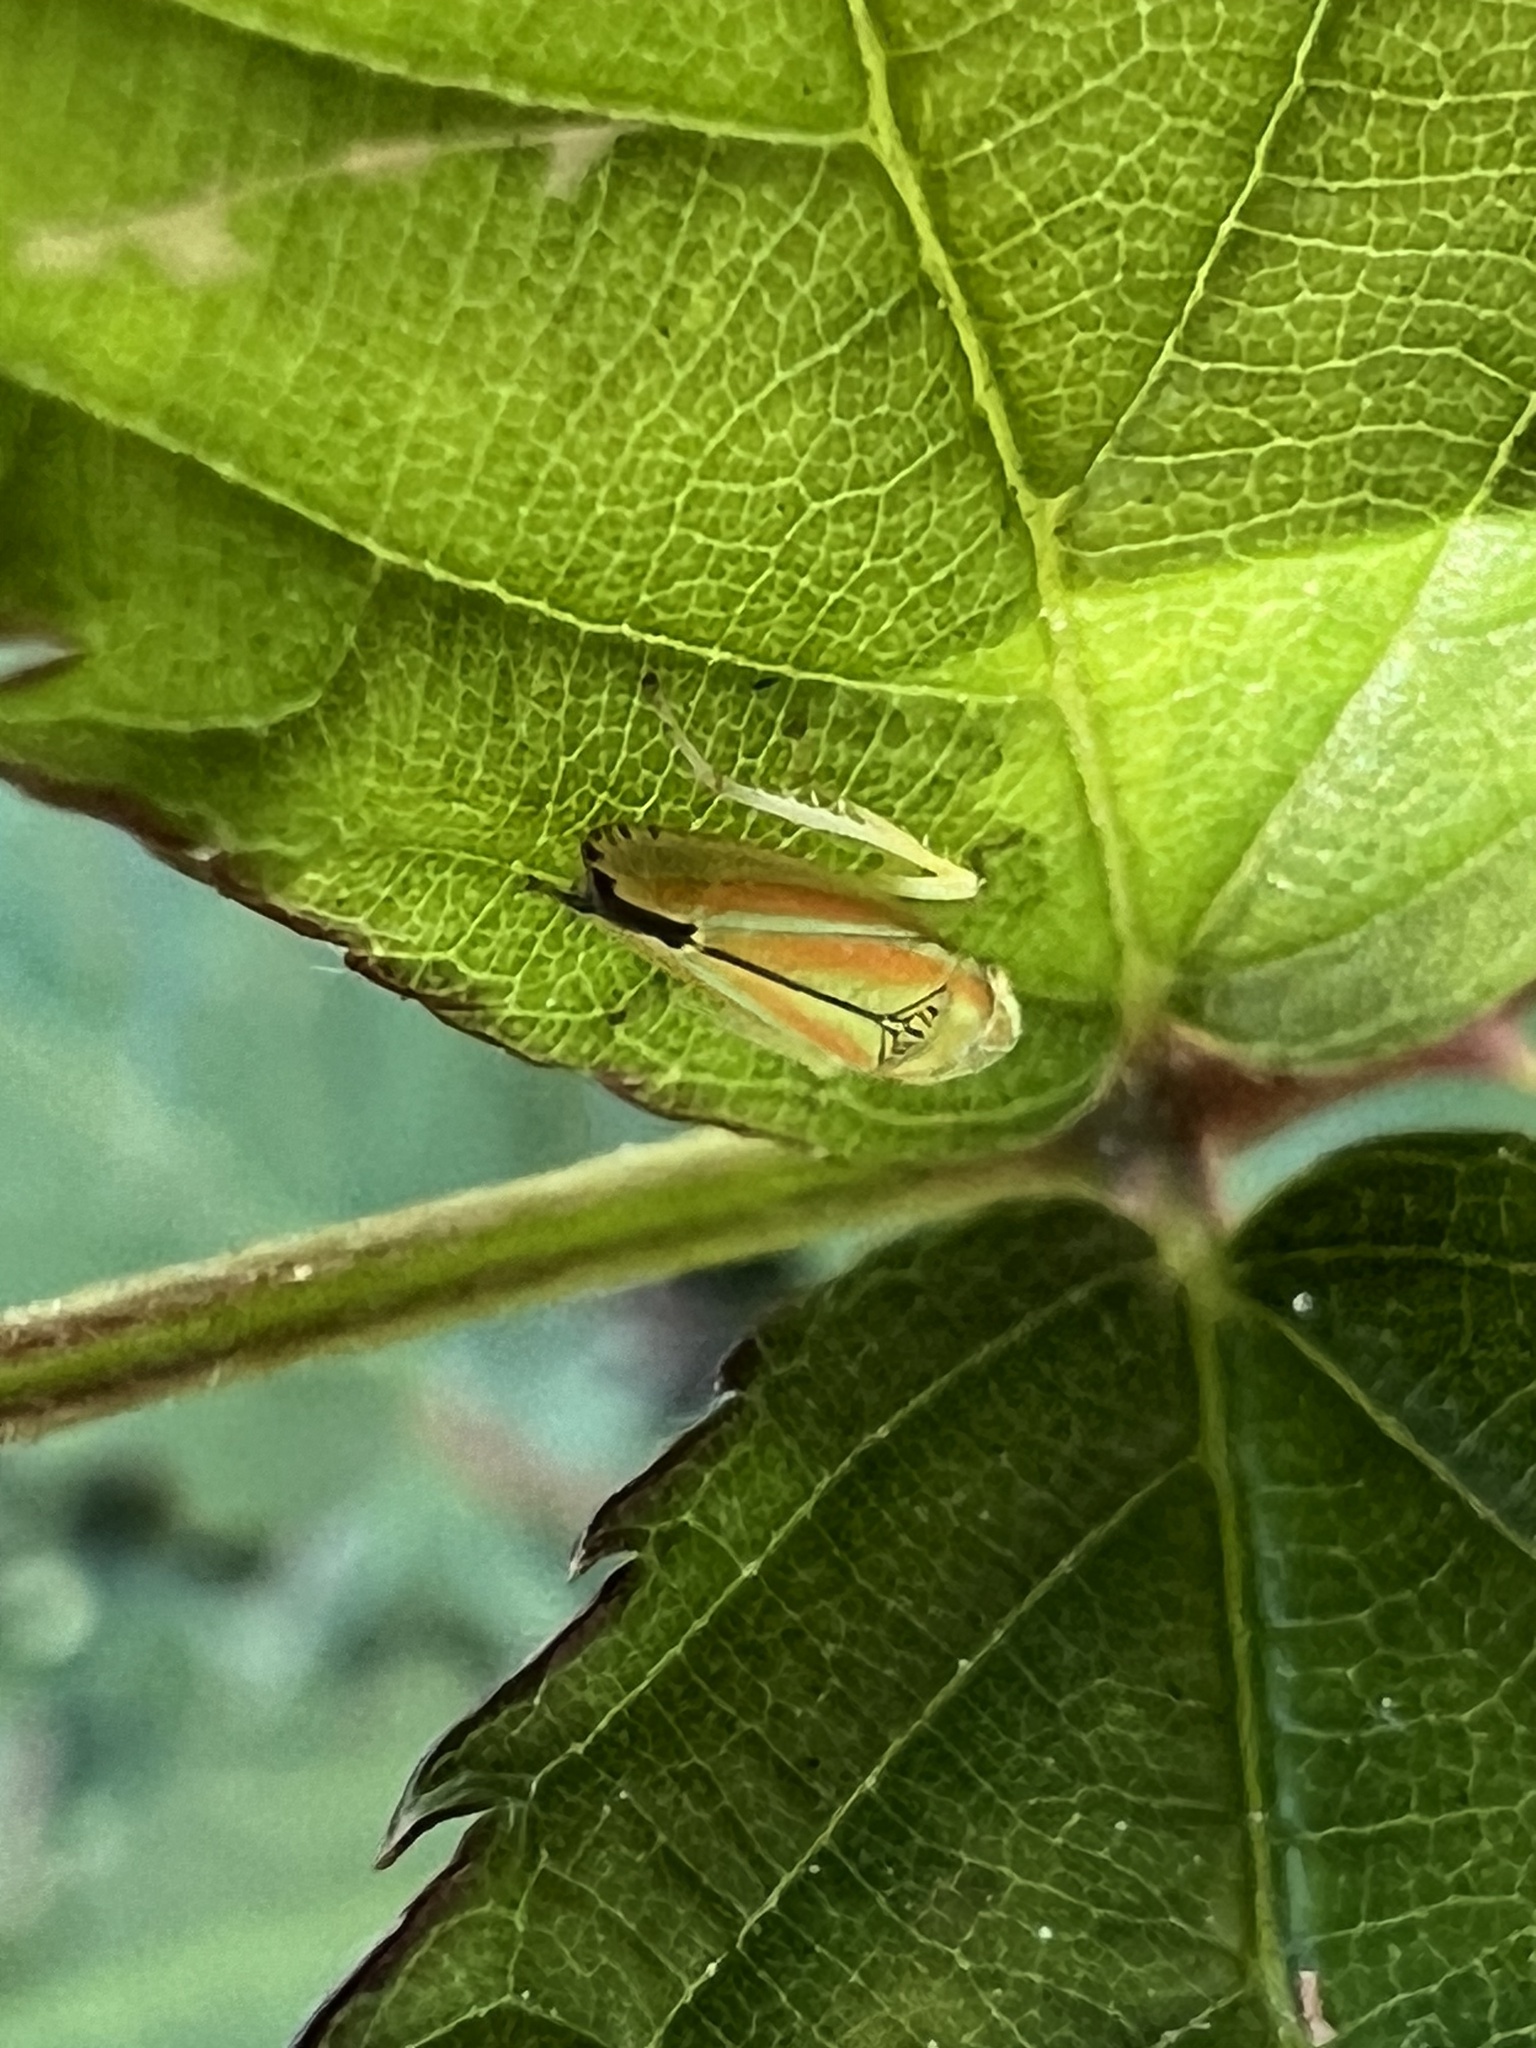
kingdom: Animalia
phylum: Arthropoda
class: Insecta
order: Hemiptera
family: Cicadellidae
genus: Graphocephala
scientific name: Graphocephala versuta
